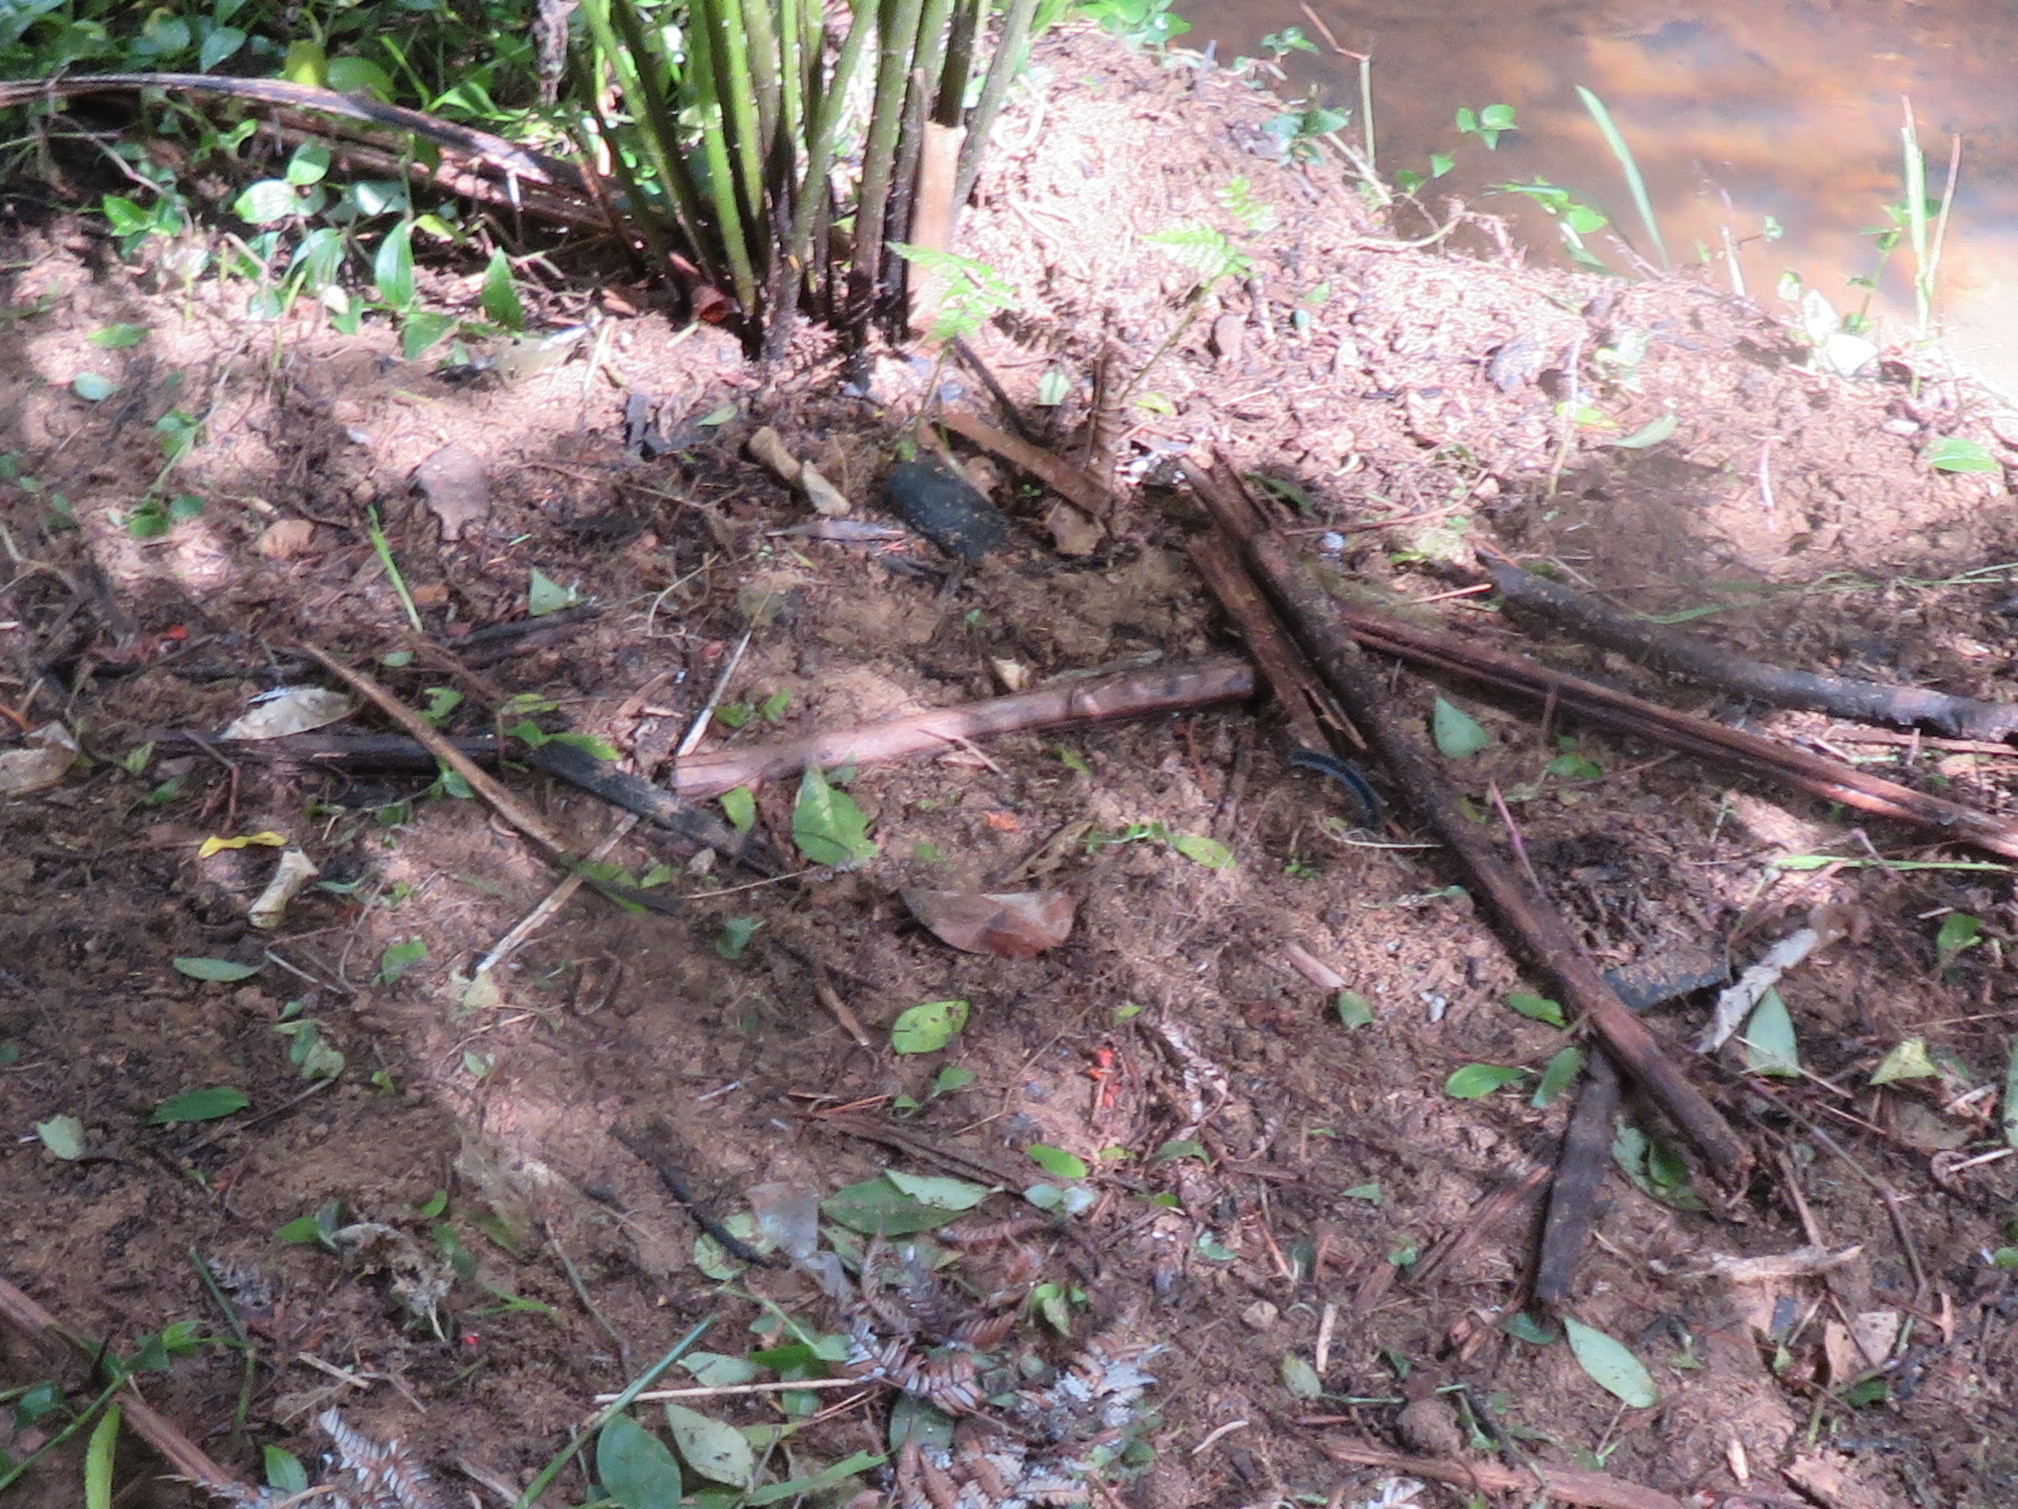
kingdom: Plantae
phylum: Tracheophyta
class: Liliopsida
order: Commelinales
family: Commelinaceae
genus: Tradescantia
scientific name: Tradescantia fluminensis
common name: Wandering-jew
